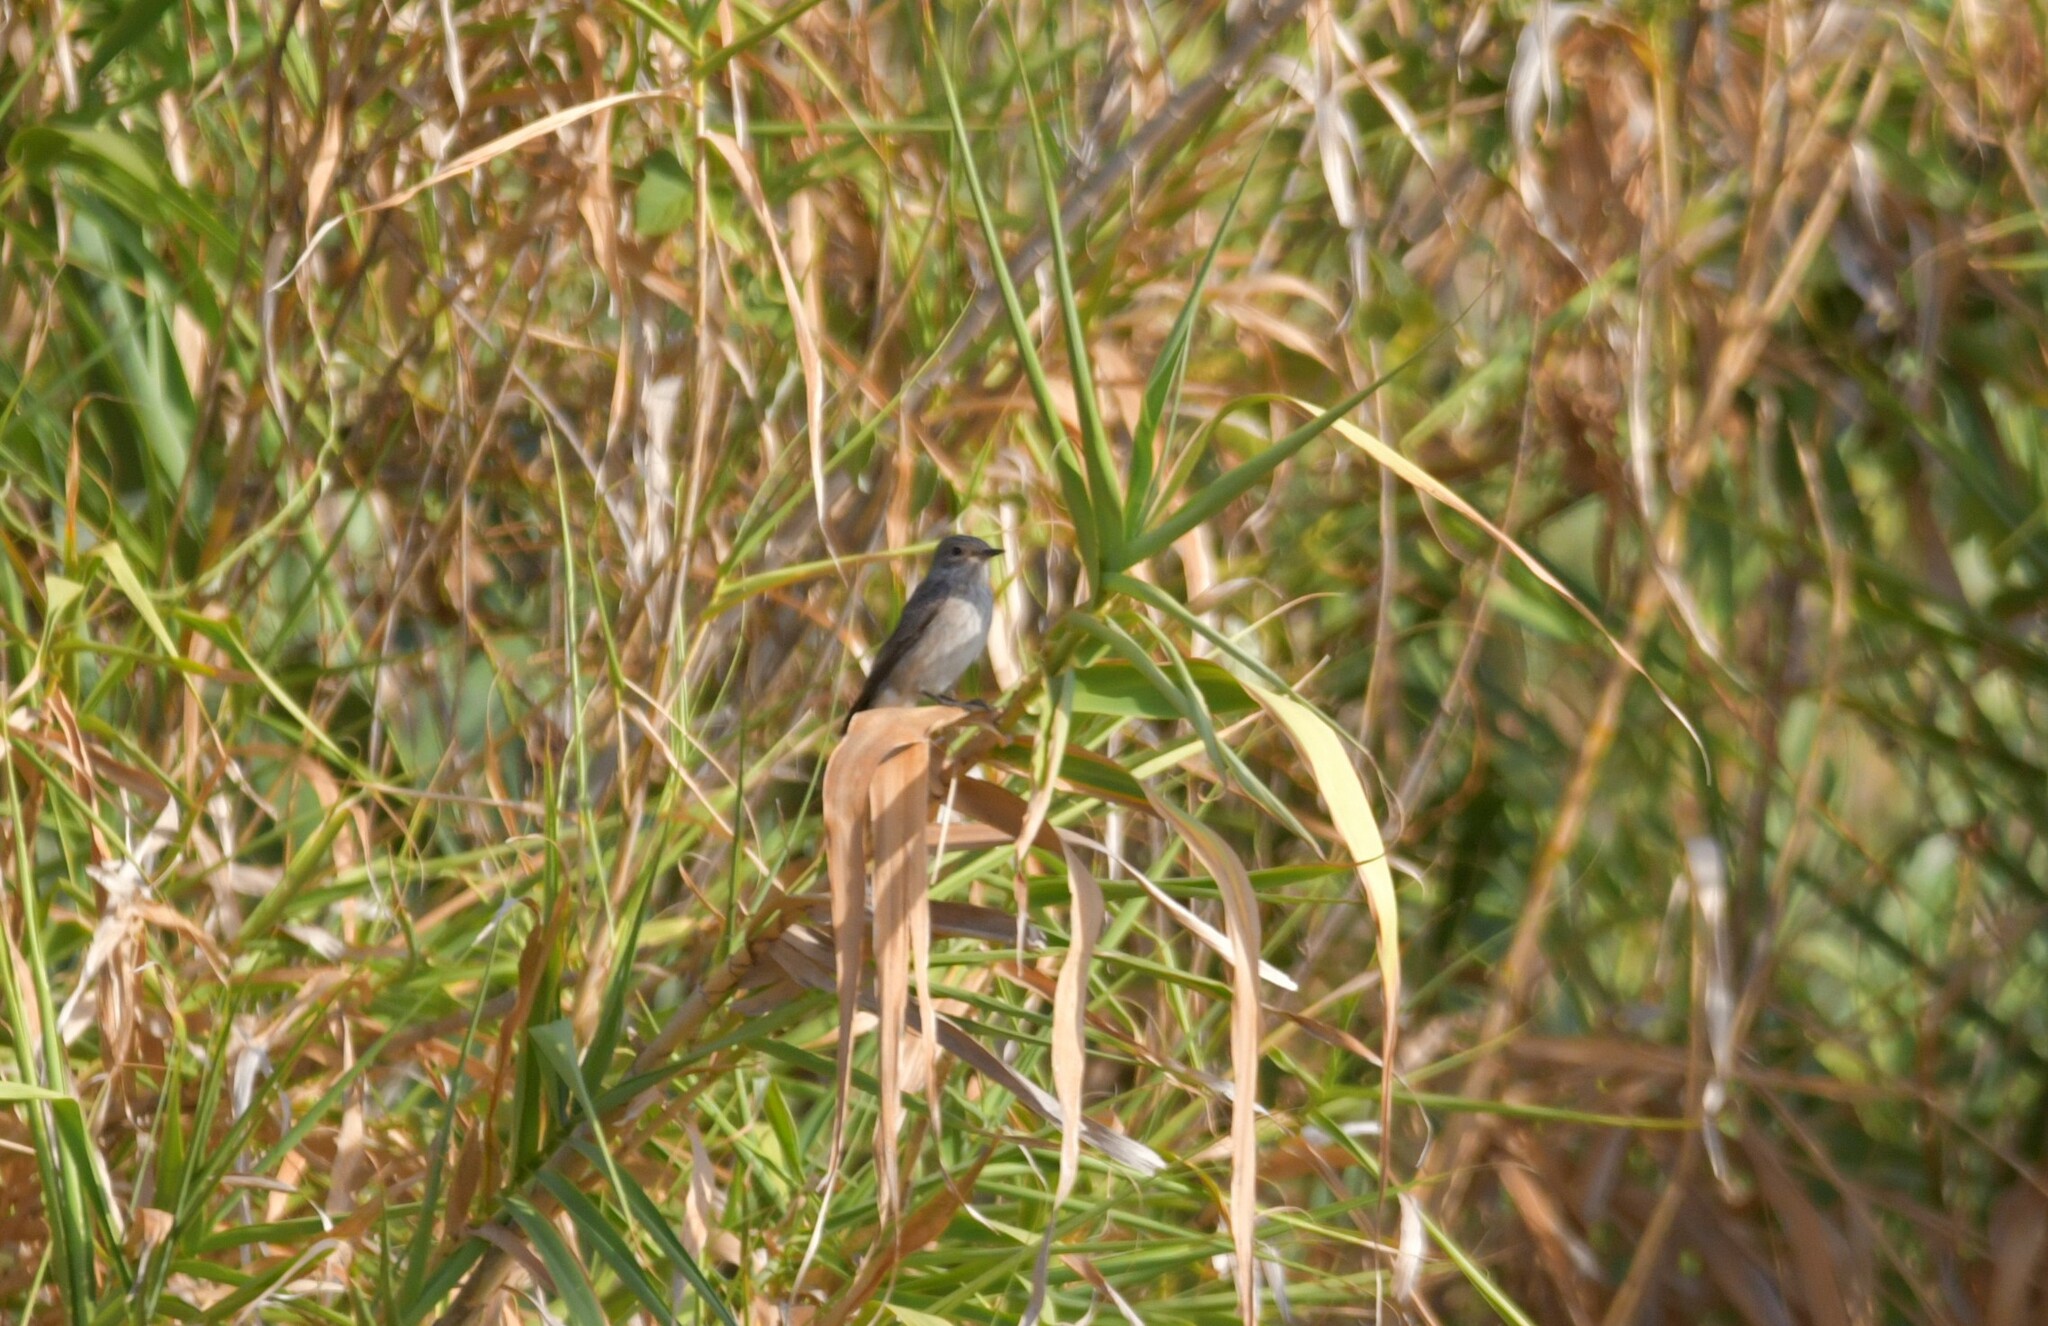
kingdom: Animalia
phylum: Chordata
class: Aves
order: Passeriformes
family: Muscicapidae
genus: Ficedula
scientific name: Ficedula hypoleuca
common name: European pied flycatcher
